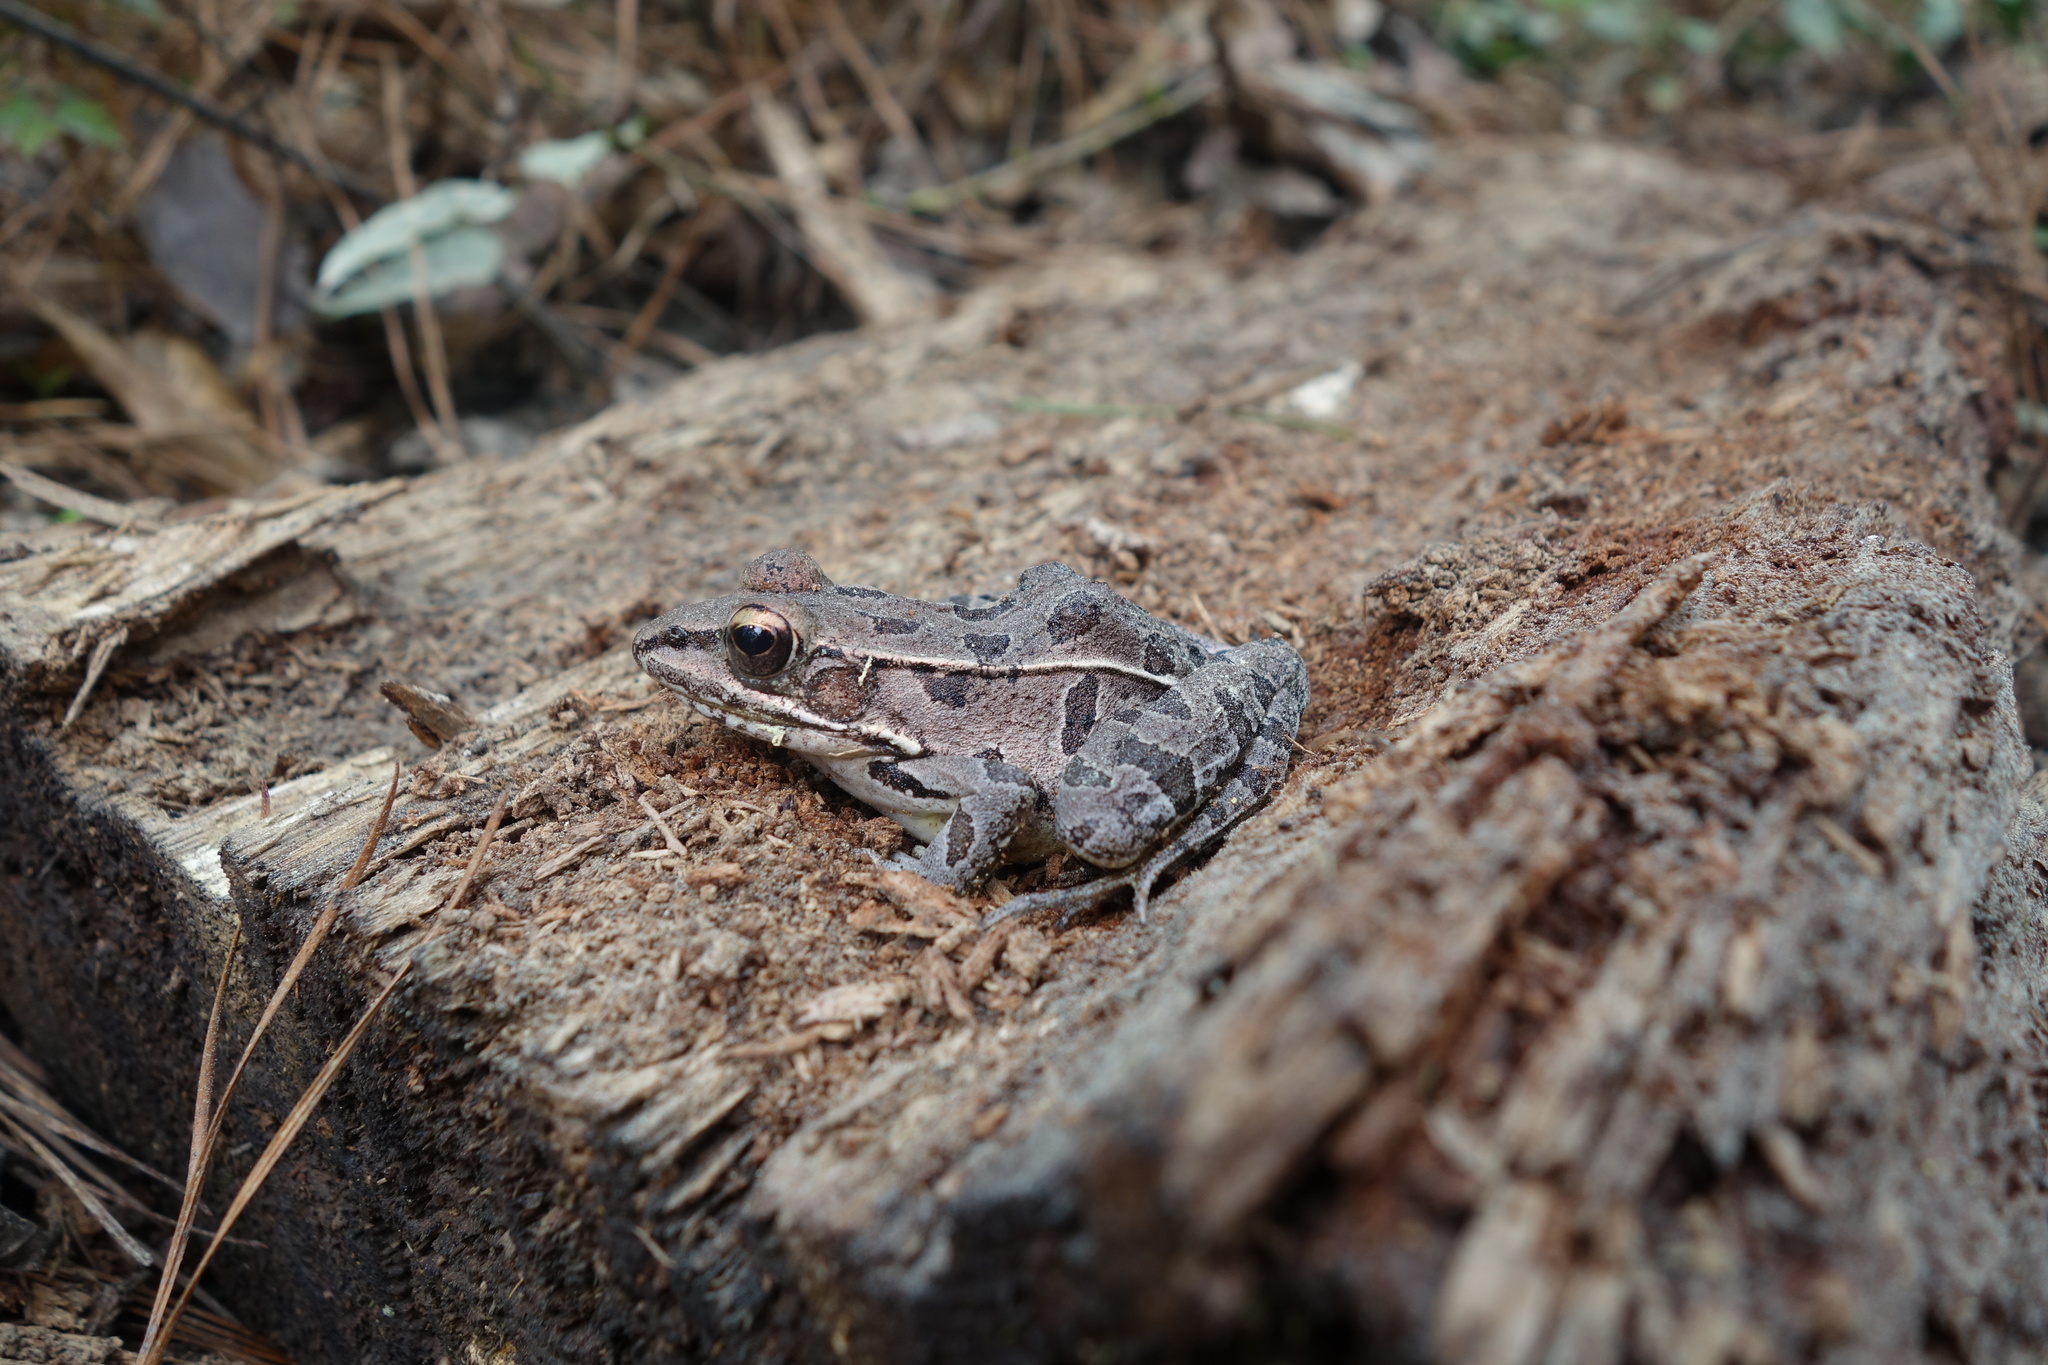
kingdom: Animalia
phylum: Chordata
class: Amphibia
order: Anura
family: Ranidae
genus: Lithobates
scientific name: Lithobates sphenocephalus
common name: Southern leopard frog
